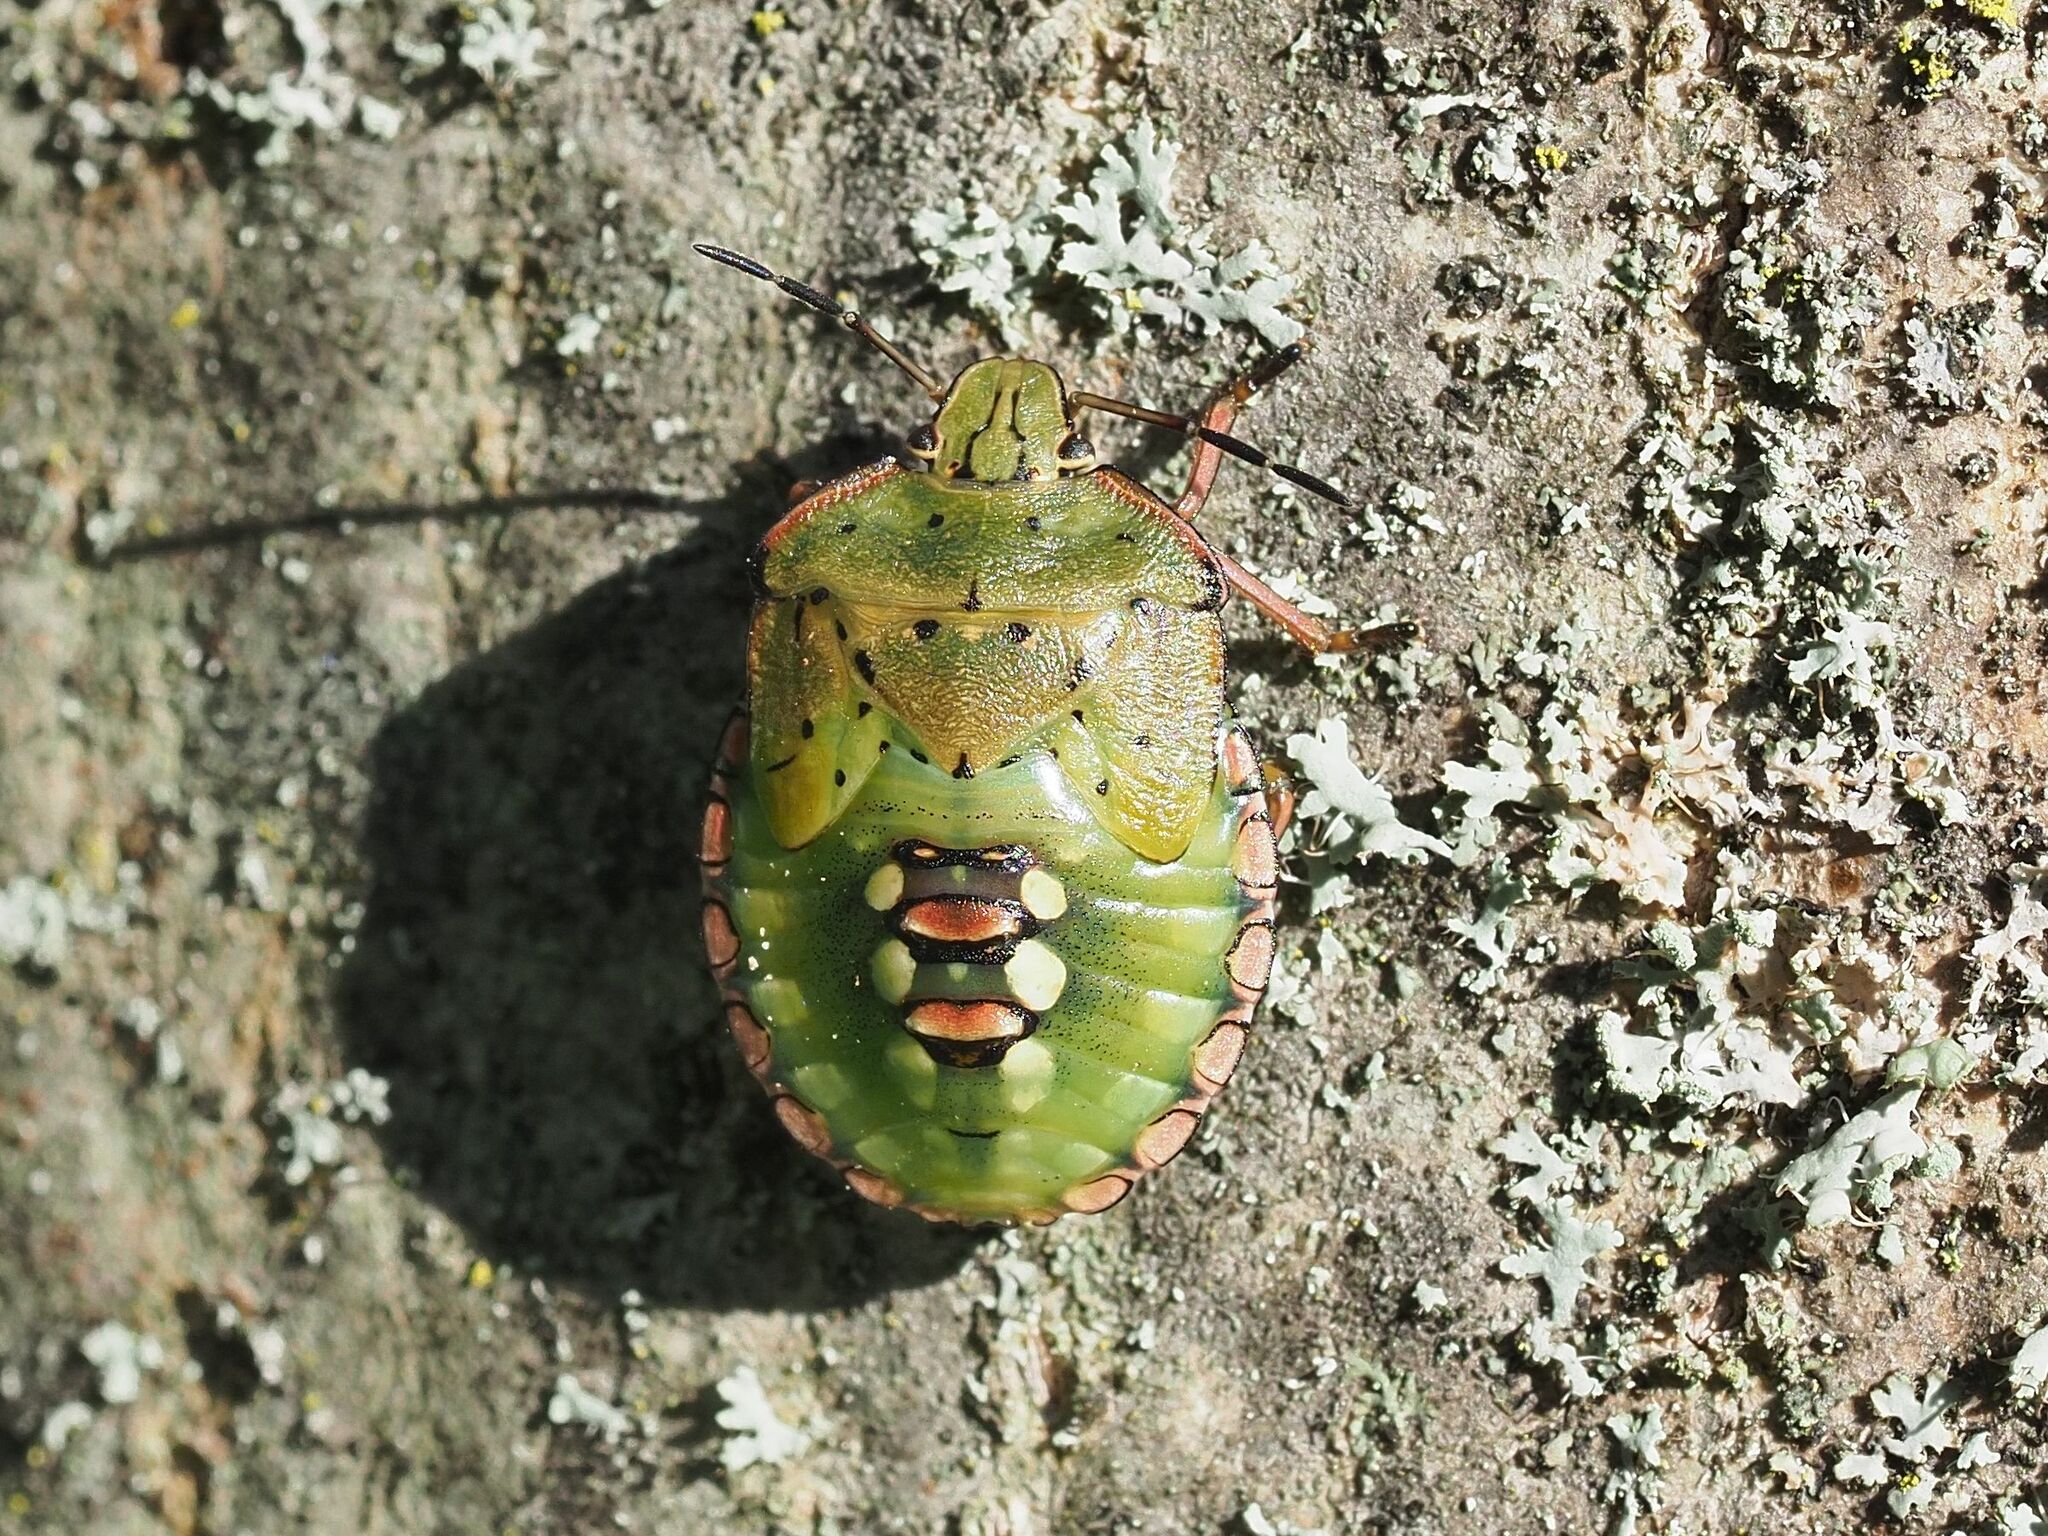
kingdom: Animalia
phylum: Arthropoda
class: Insecta
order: Hemiptera
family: Pentatomidae
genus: Nezara
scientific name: Nezara viridula
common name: Southern green stink bug
